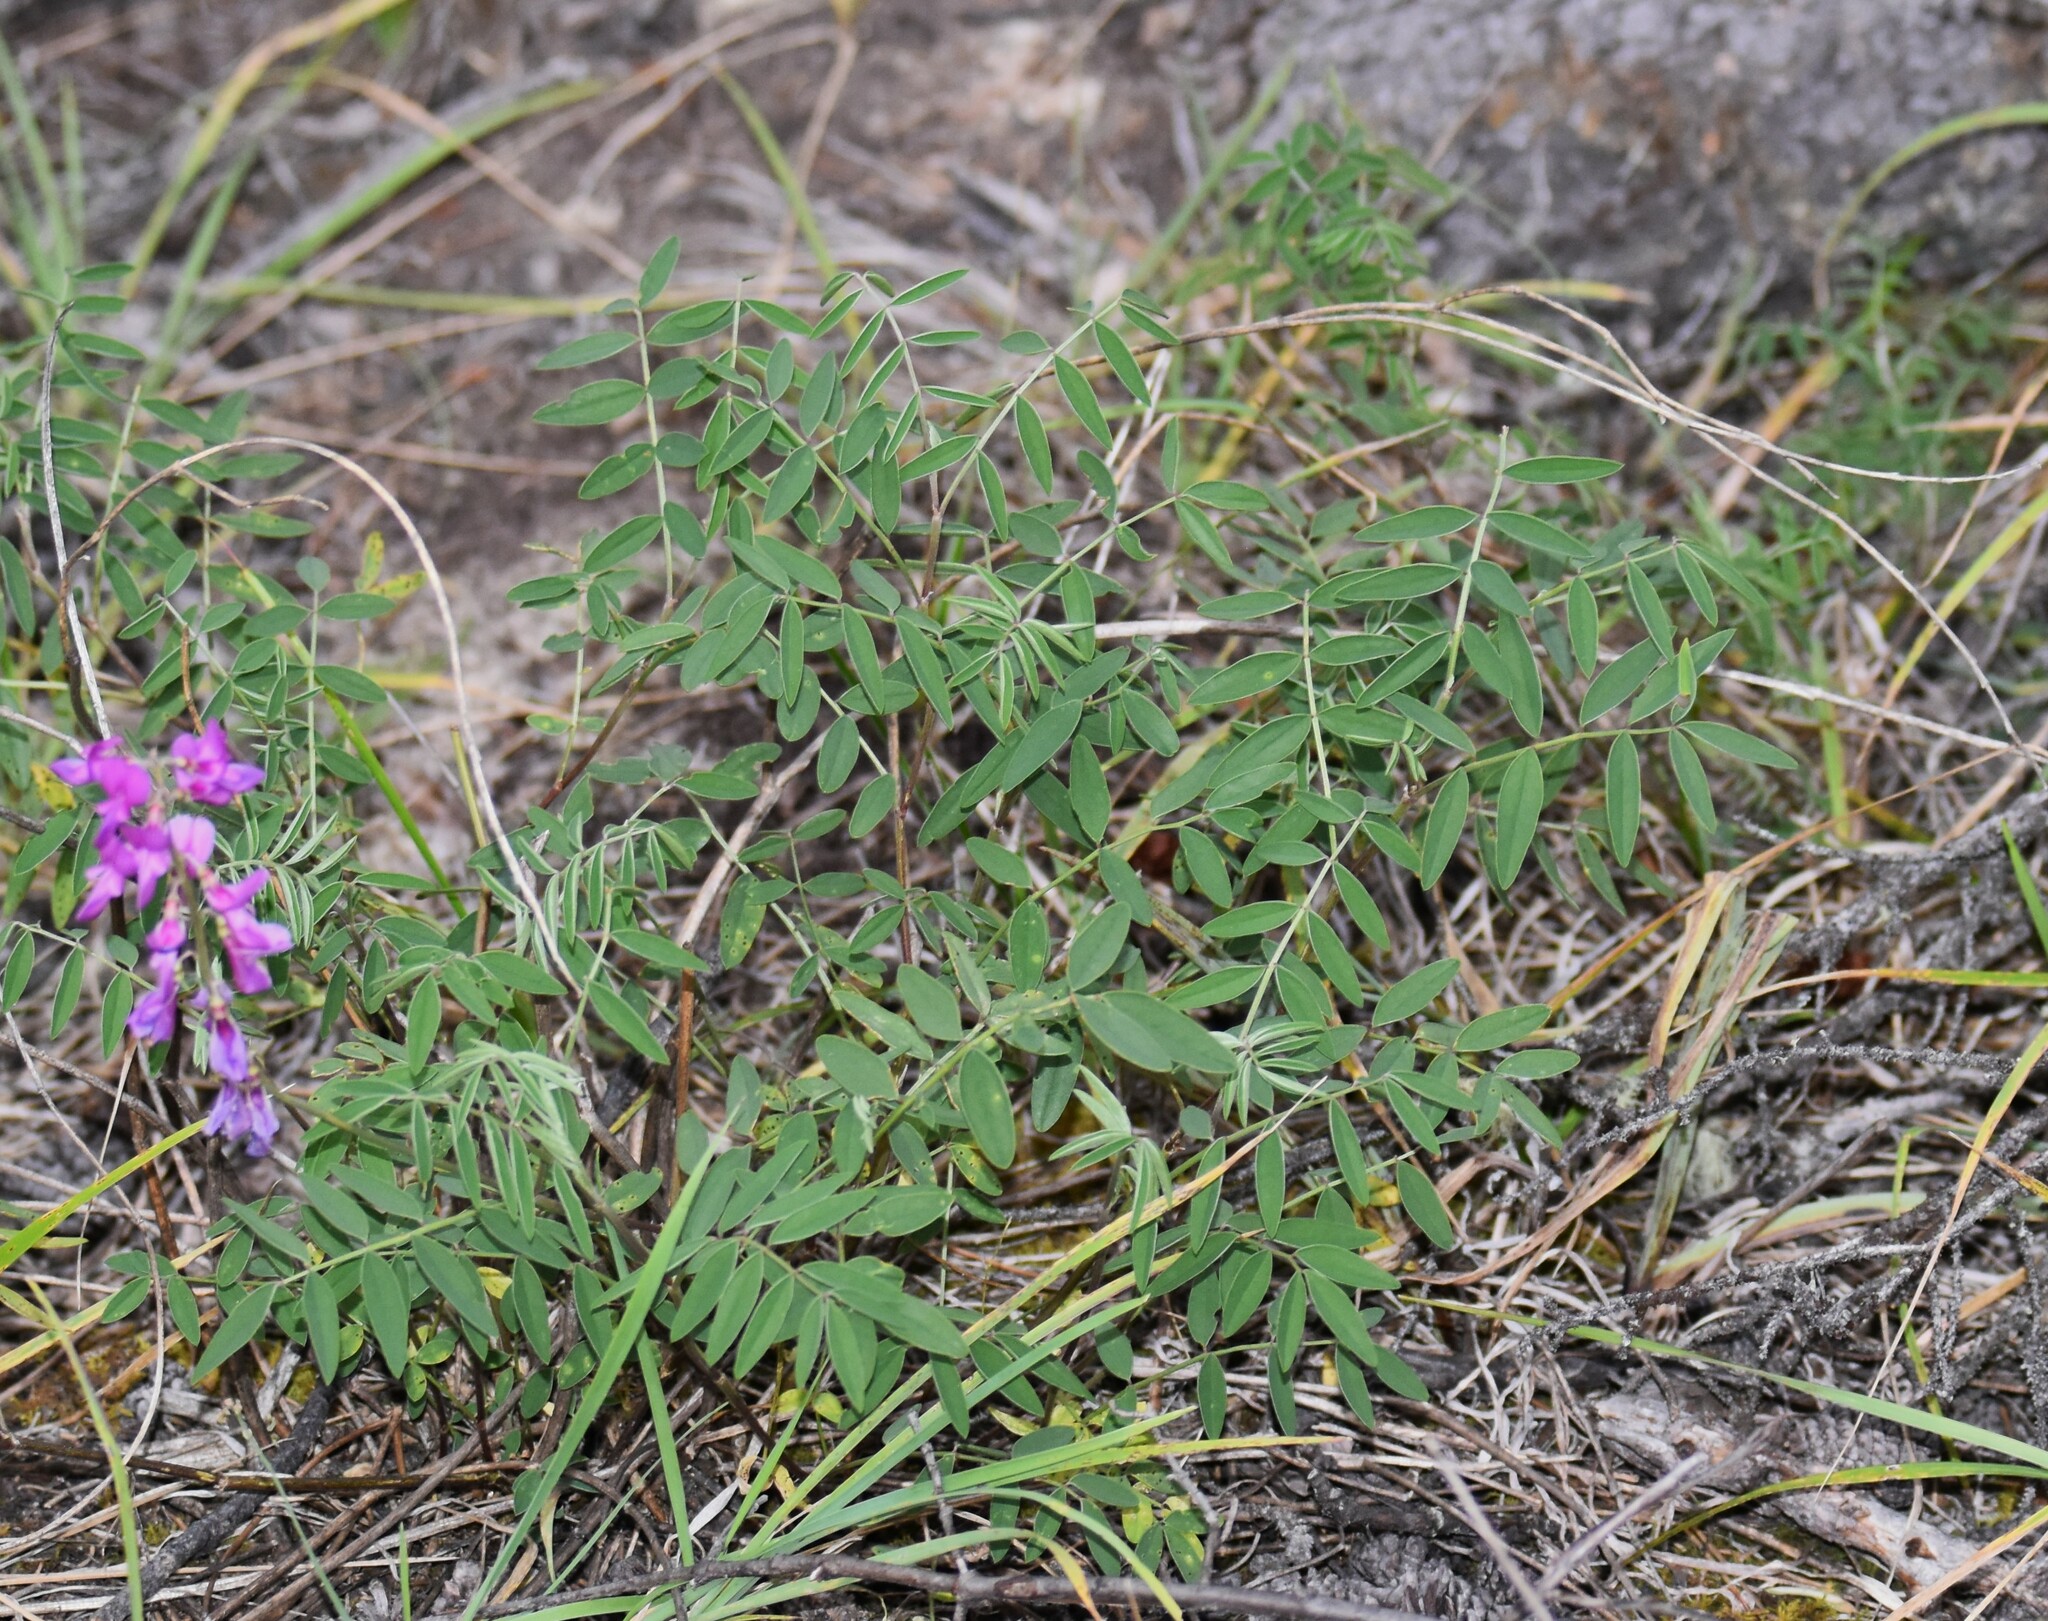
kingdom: Plantae
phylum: Tracheophyta
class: Magnoliopsida
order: Fabales
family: Fabaceae
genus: Hedysarum
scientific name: Hedysarum boreale
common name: Northern sweet-vetch
